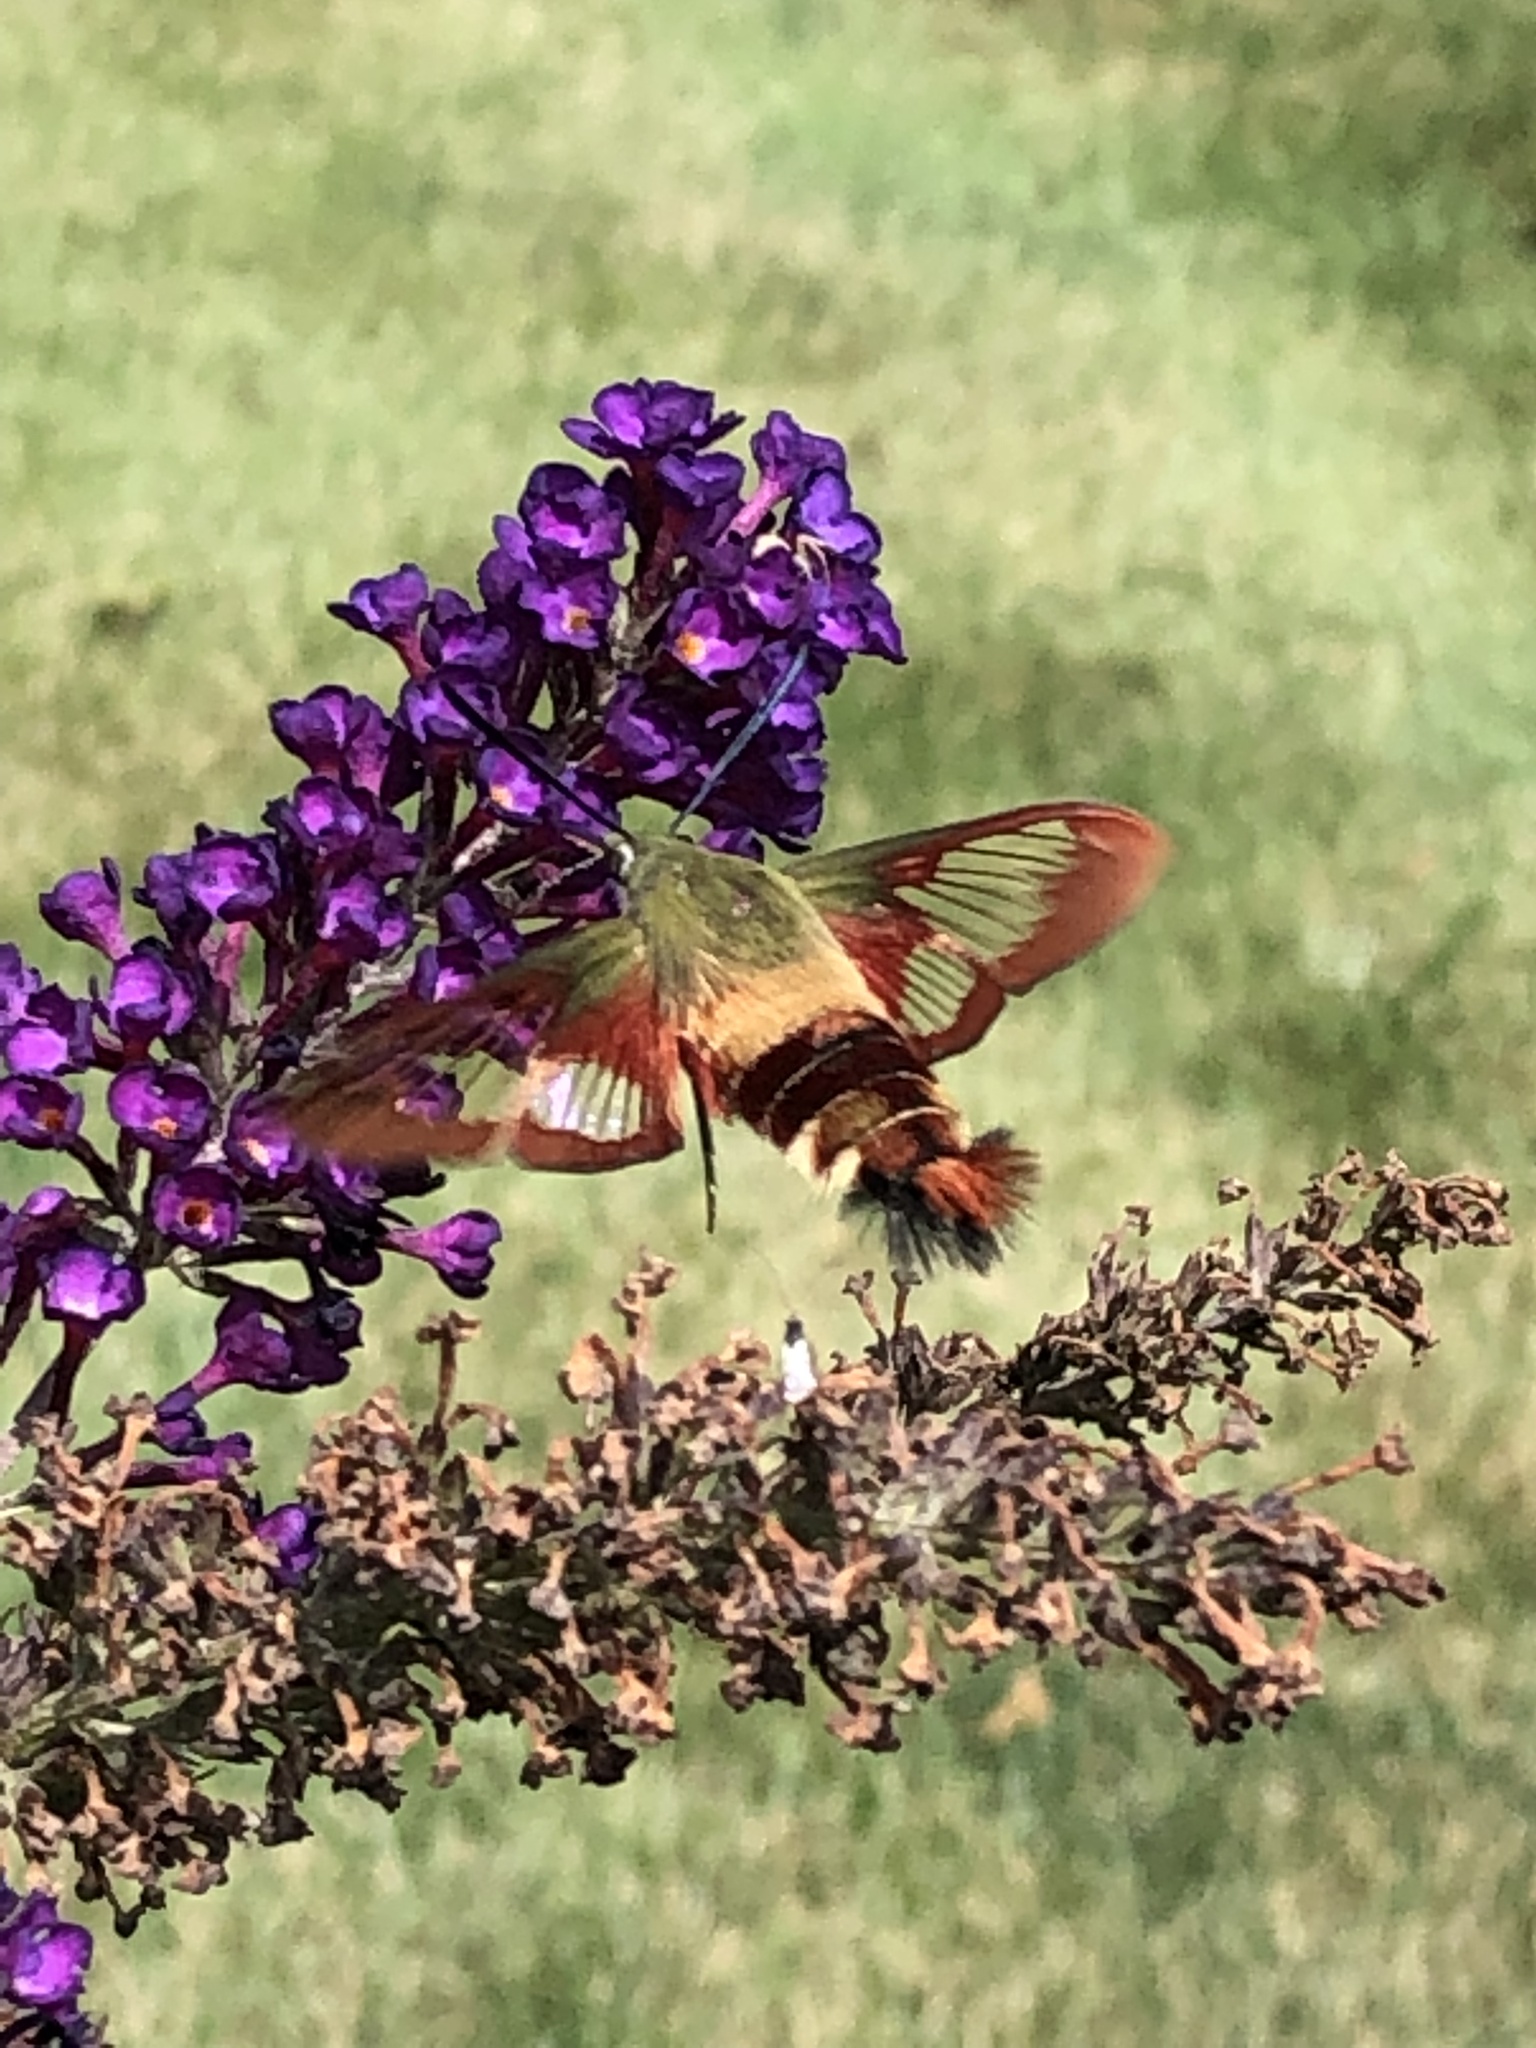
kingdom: Animalia
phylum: Arthropoda
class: Insecta
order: Lepidoptera
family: Sphingidae
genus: Hemaris
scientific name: Hemaris thysbe
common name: Common clear-wing
